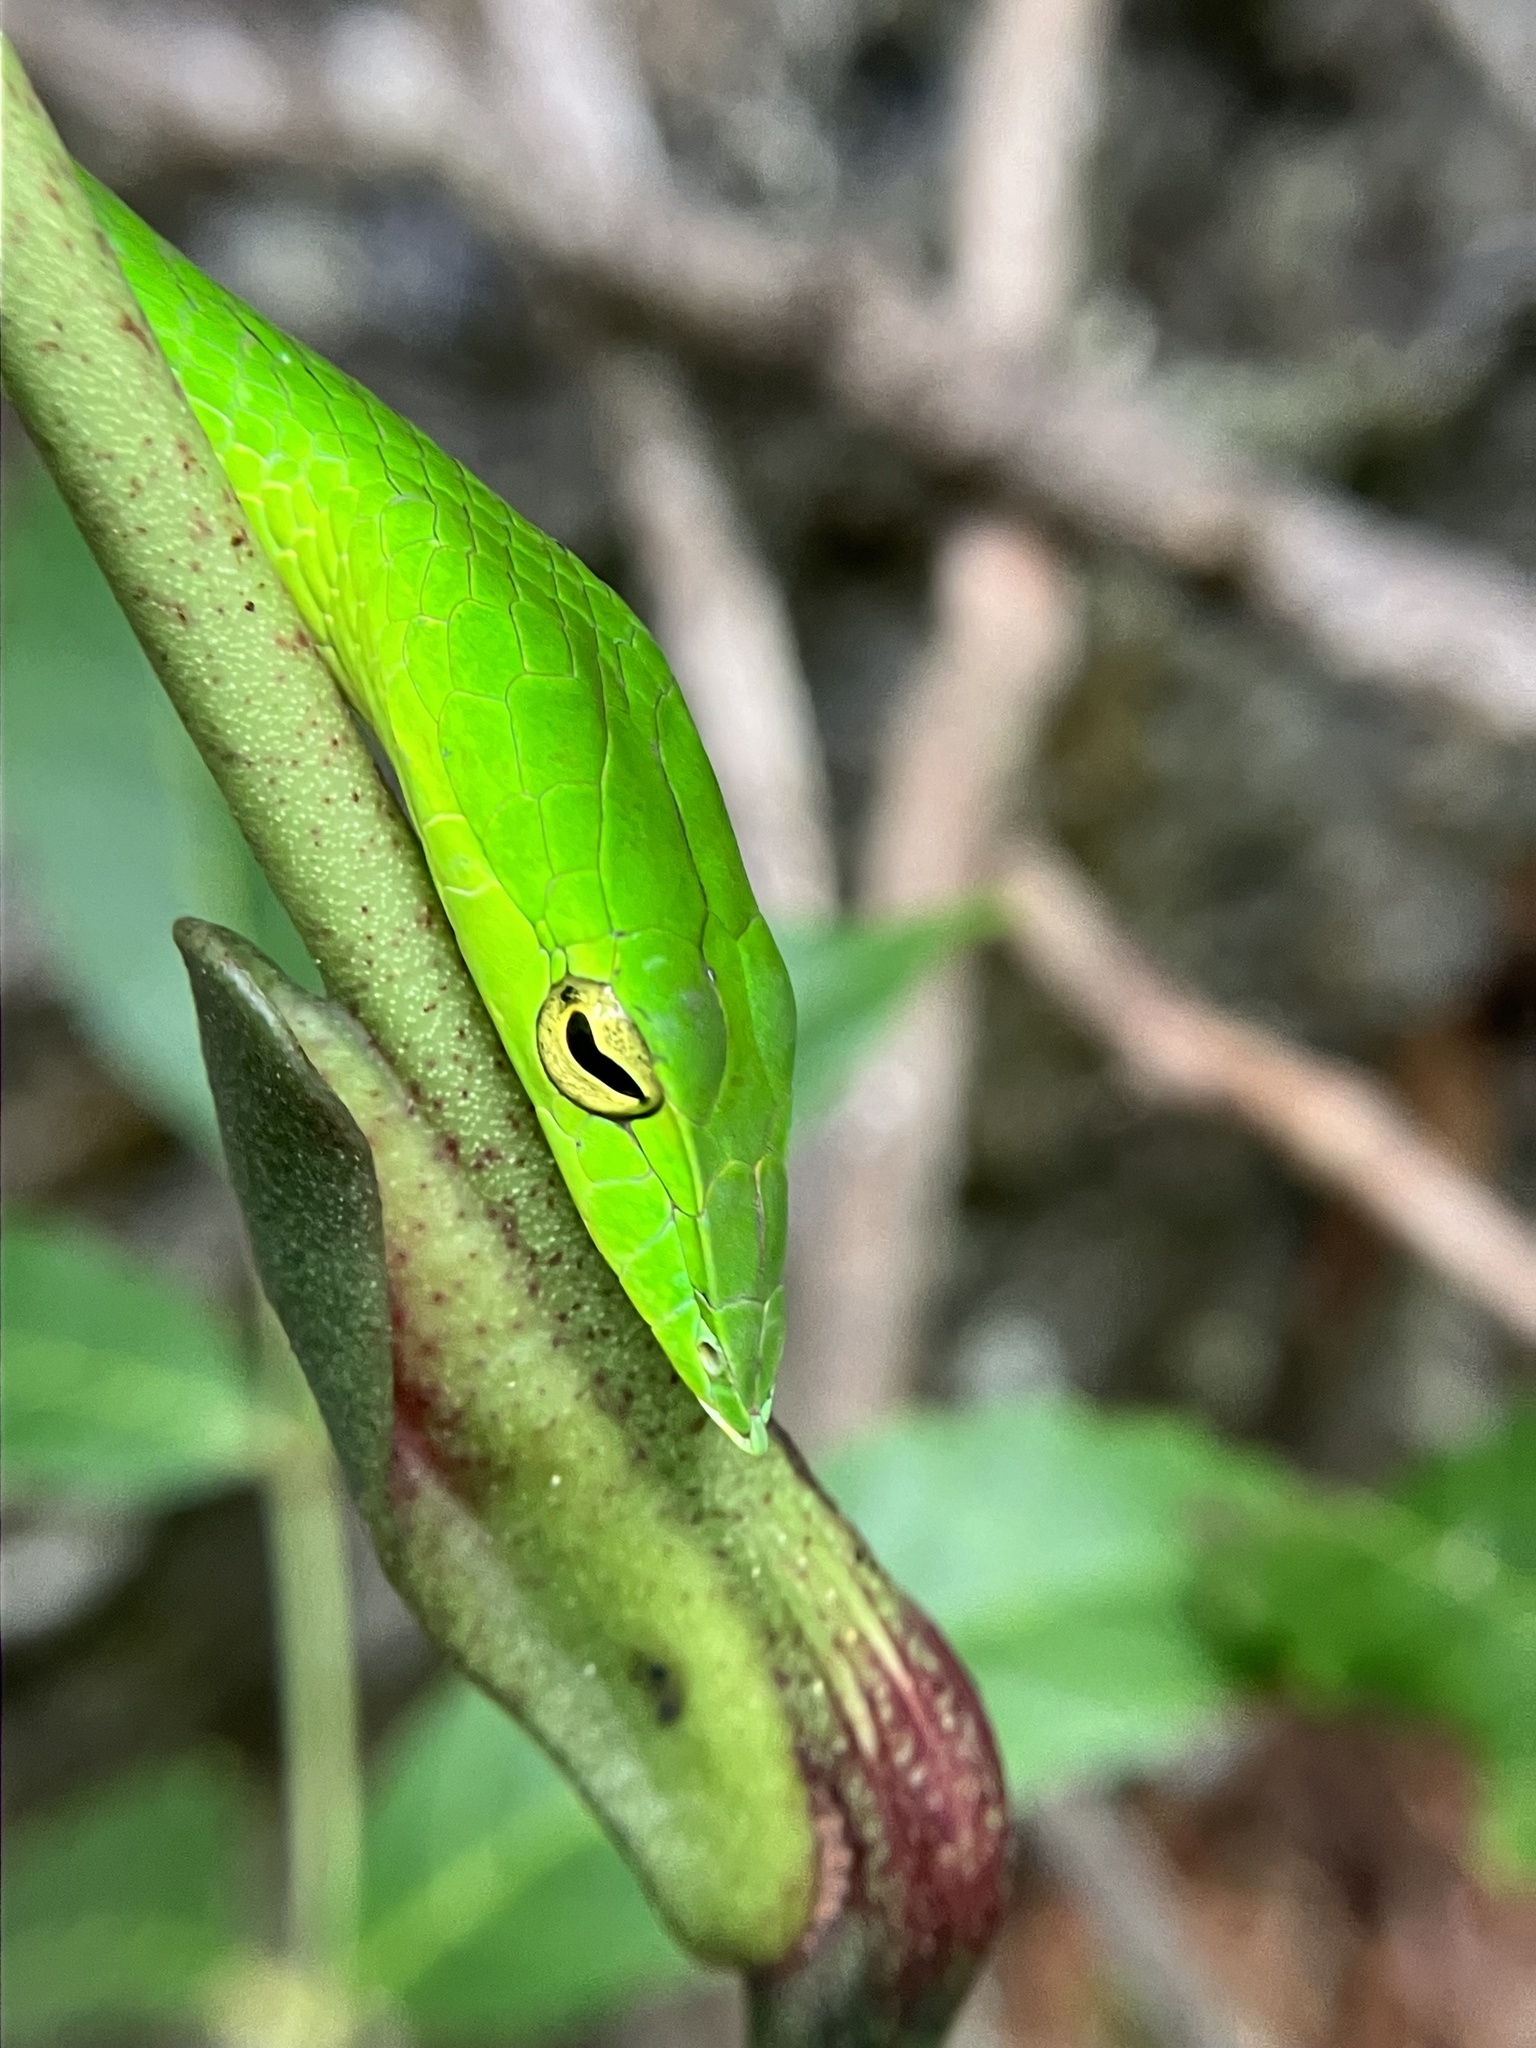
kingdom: Animalia
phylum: Chordata
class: Squamata
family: Colubridae
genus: Ahaetulla
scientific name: Ahaetulla farnsworthi
